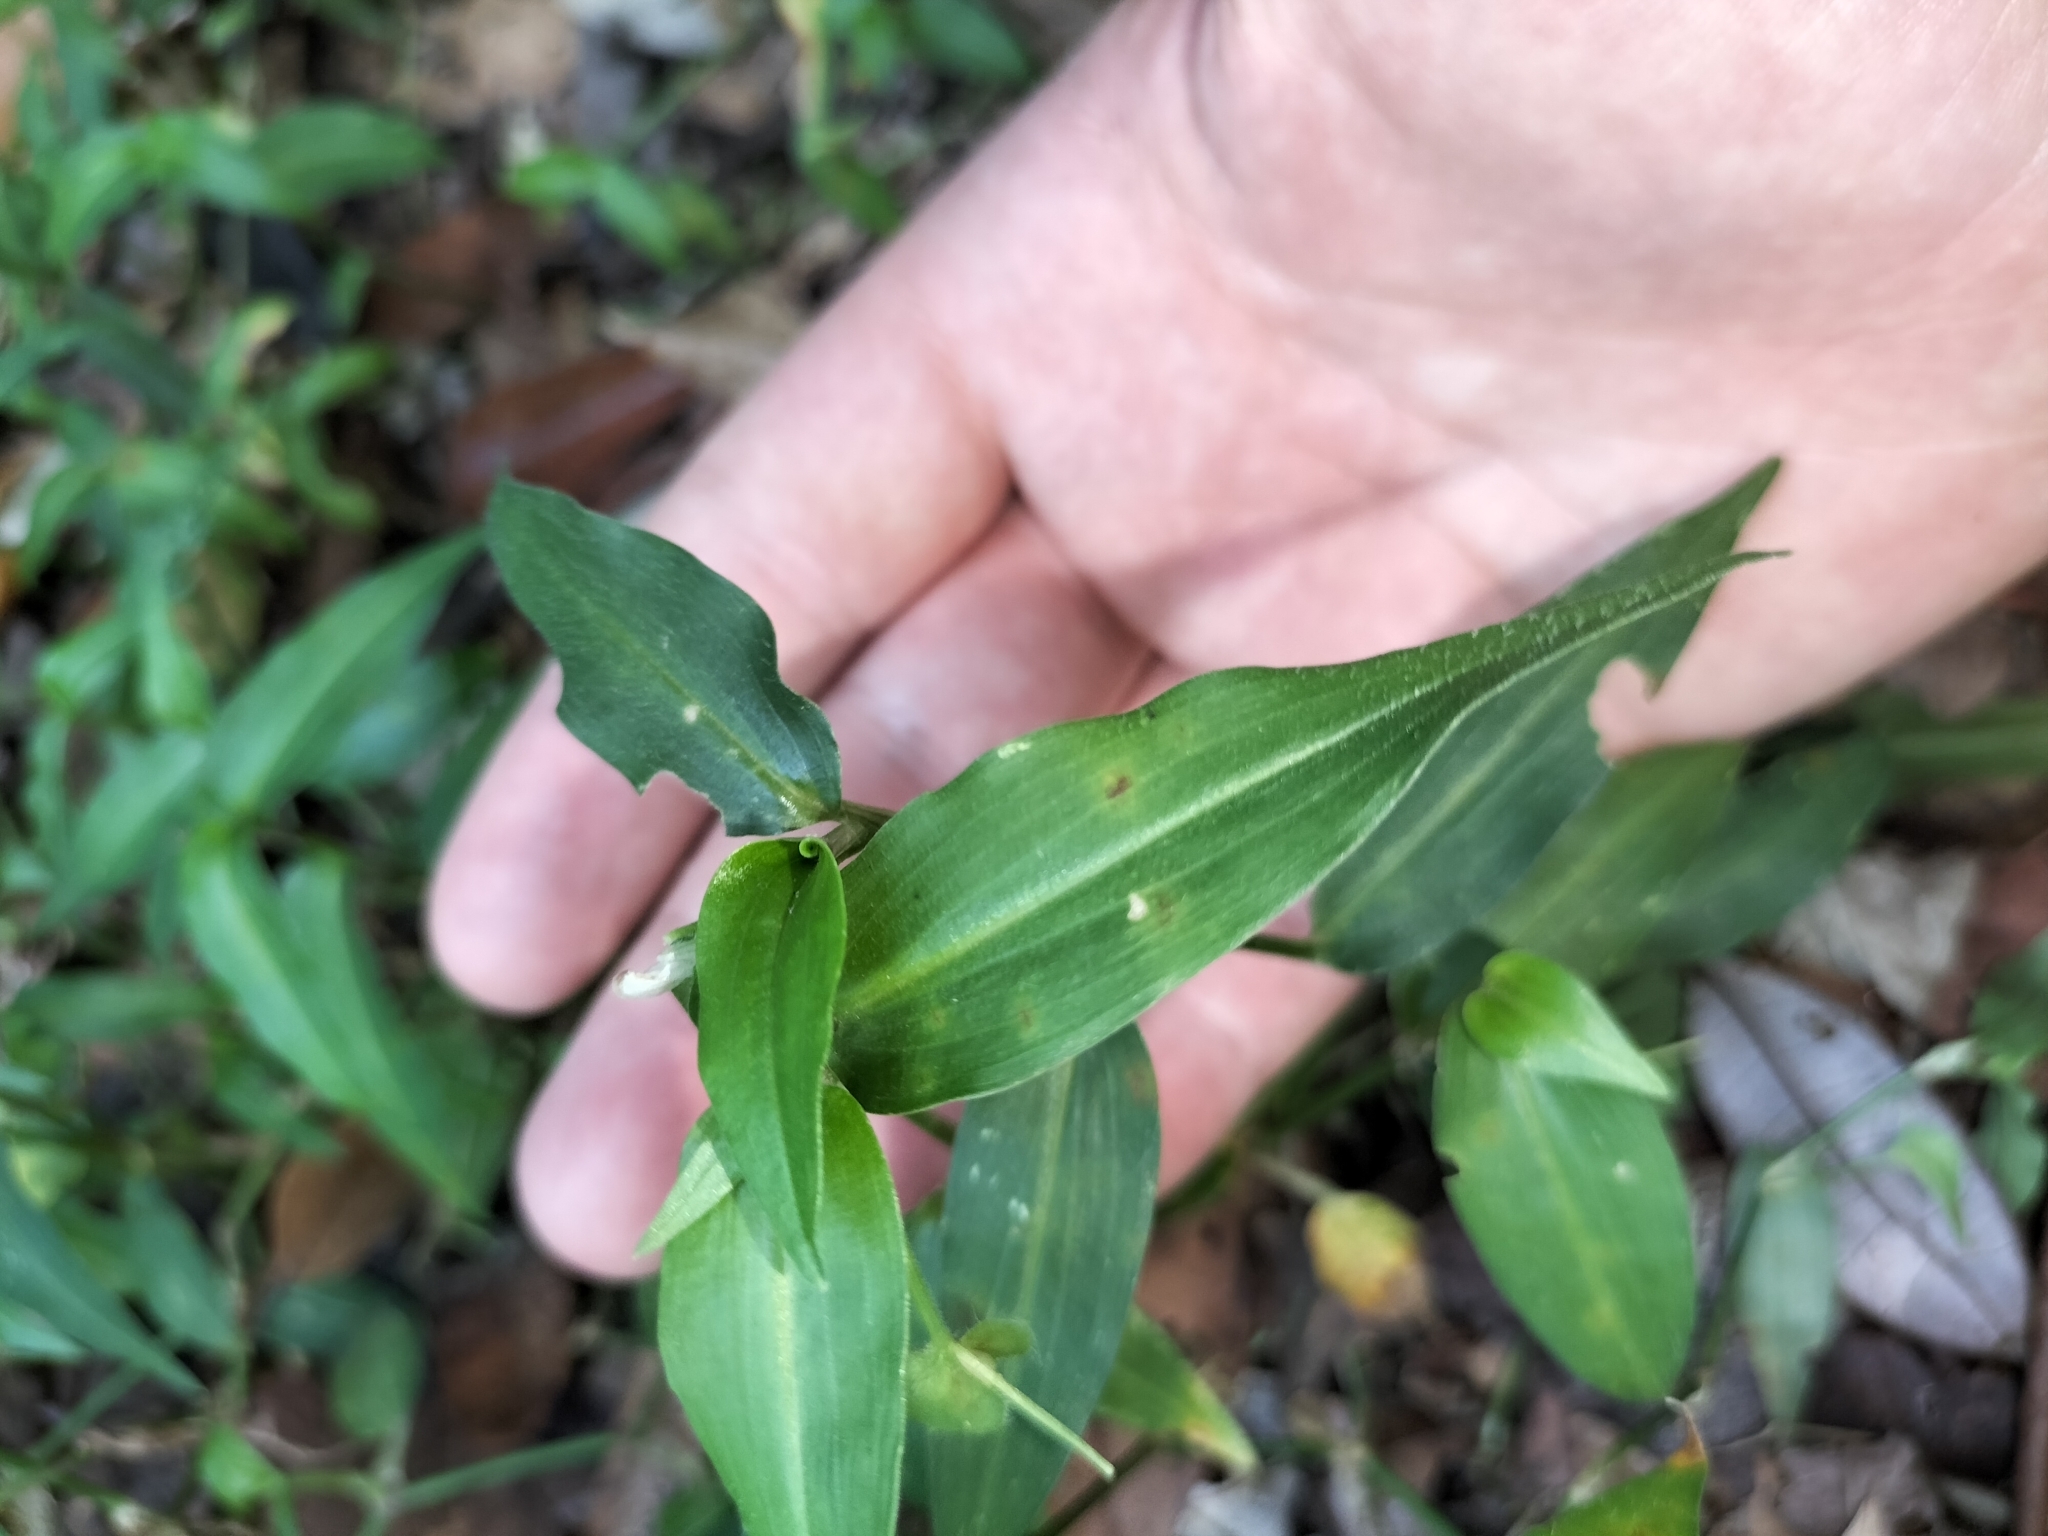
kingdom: Plantae
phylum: Tracheophyta
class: Liliopsida
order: Commelinales
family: Commelinaceae
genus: Commelina
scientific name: Commelina cyanea
